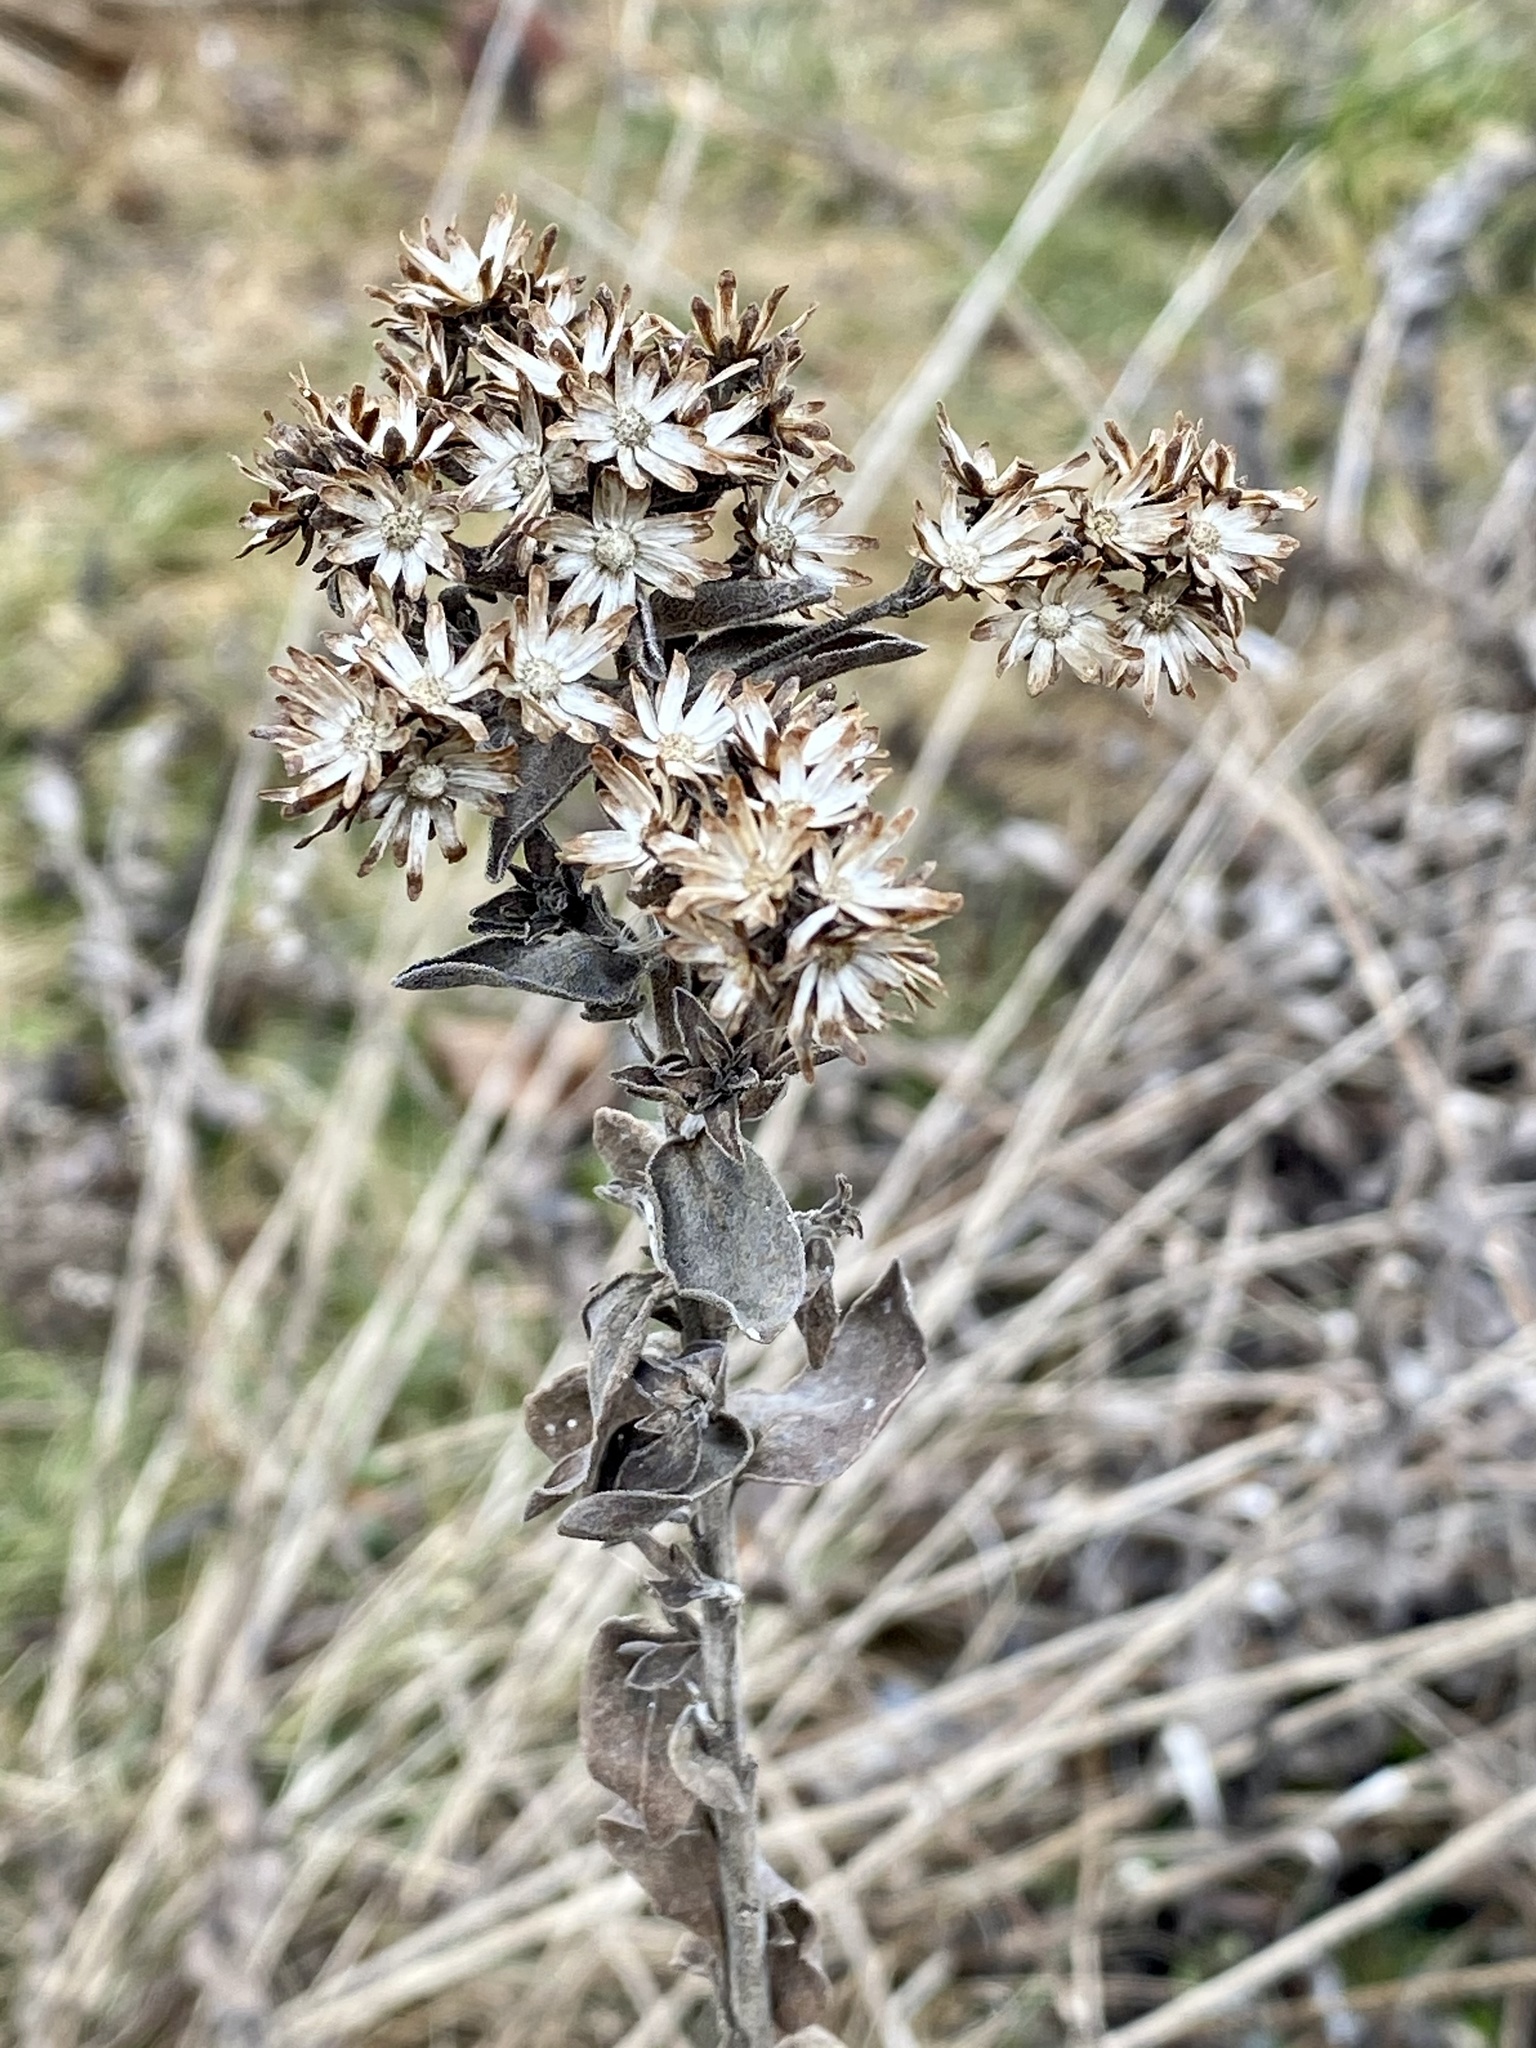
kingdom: Plantae
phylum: Tracheophyta
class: Magnoliopsida
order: Asterales
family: Asteraceae
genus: Solidago
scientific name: Solidago rigida
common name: Rigid goldenrod
